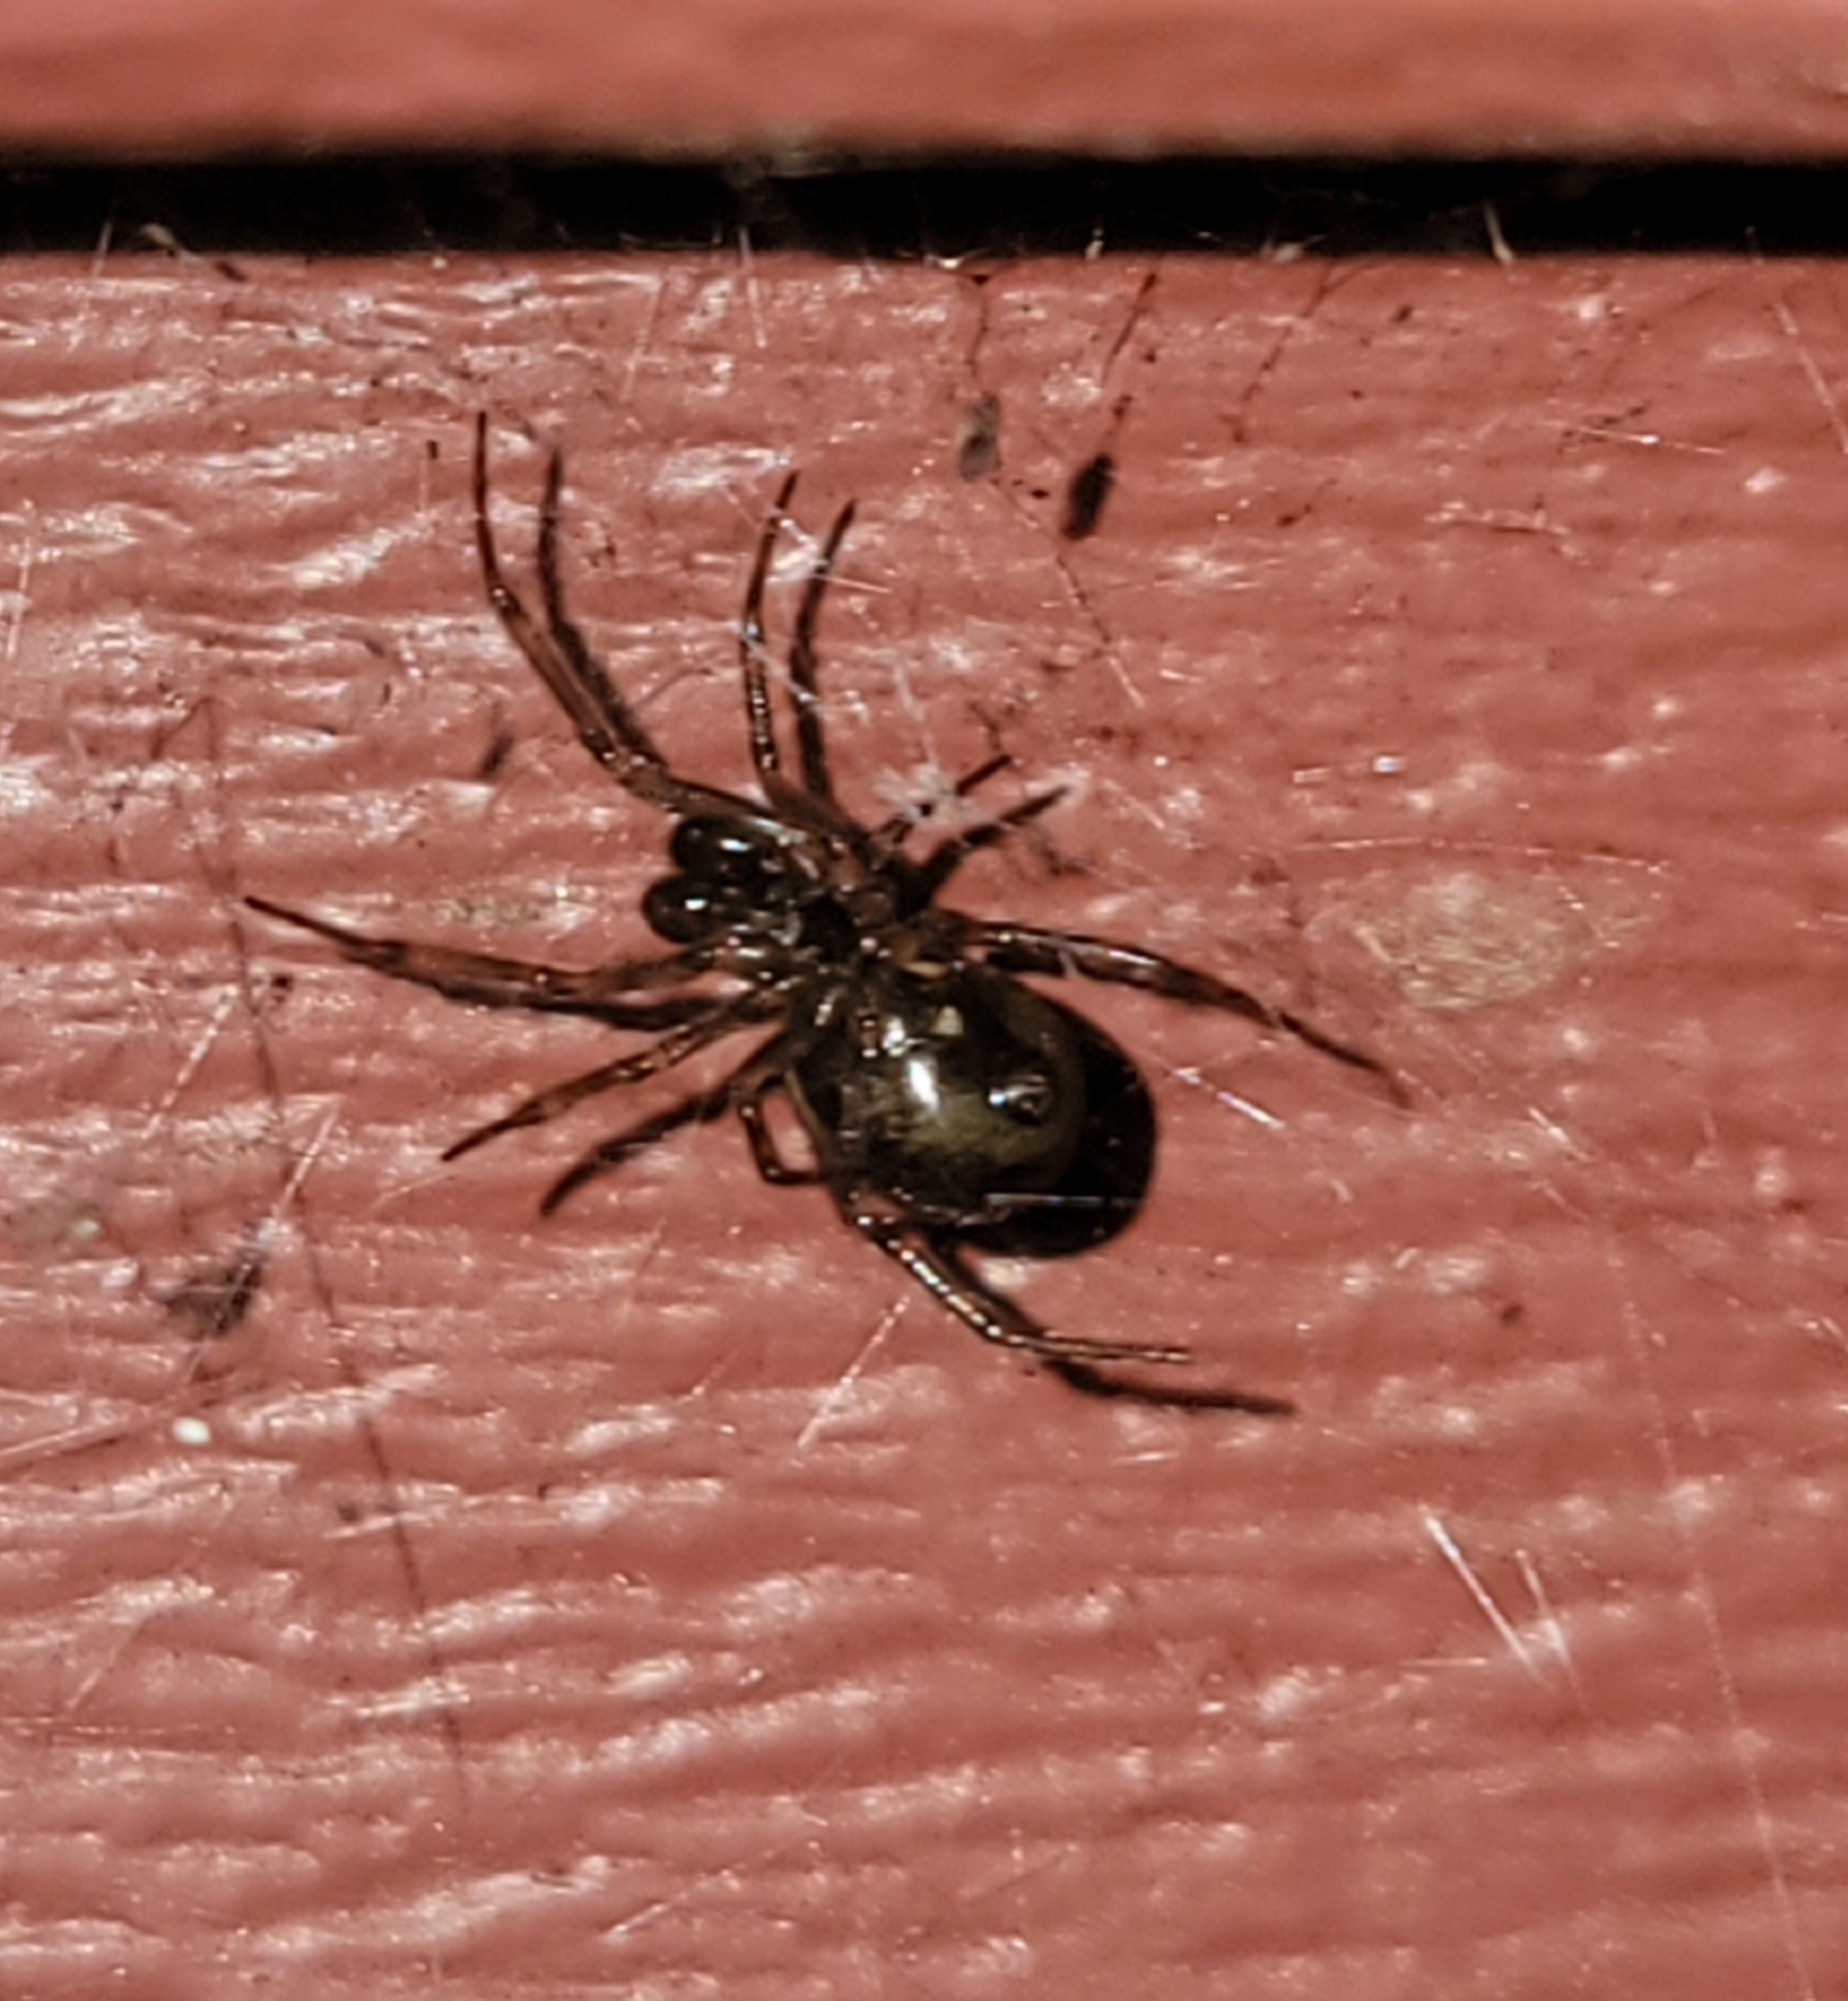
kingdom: Animalia
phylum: Arthropoda
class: Arachnida
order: Araneae
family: Theridiidae
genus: Steatoda
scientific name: Steatoda borealis
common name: Boreal combfoot
